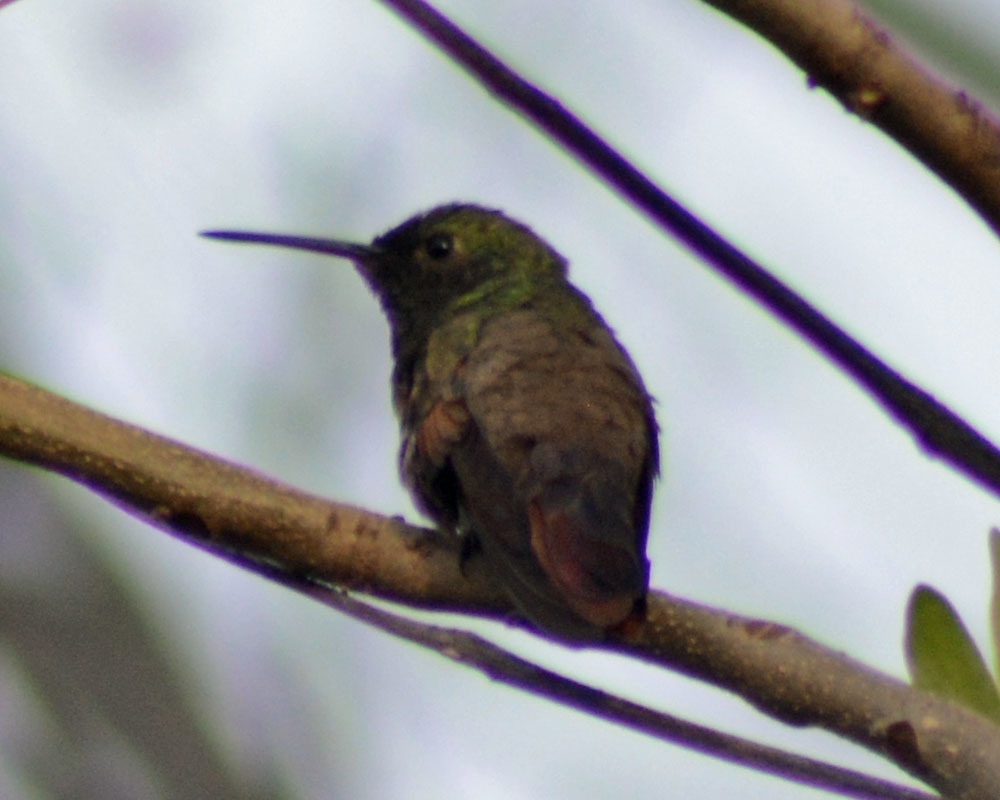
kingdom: Animalia
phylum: Chordata
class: Aves
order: Apodiformes
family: Trochilidae
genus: Saucerottia
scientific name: Saucerottia beryllina
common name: Berylline hummingbird
